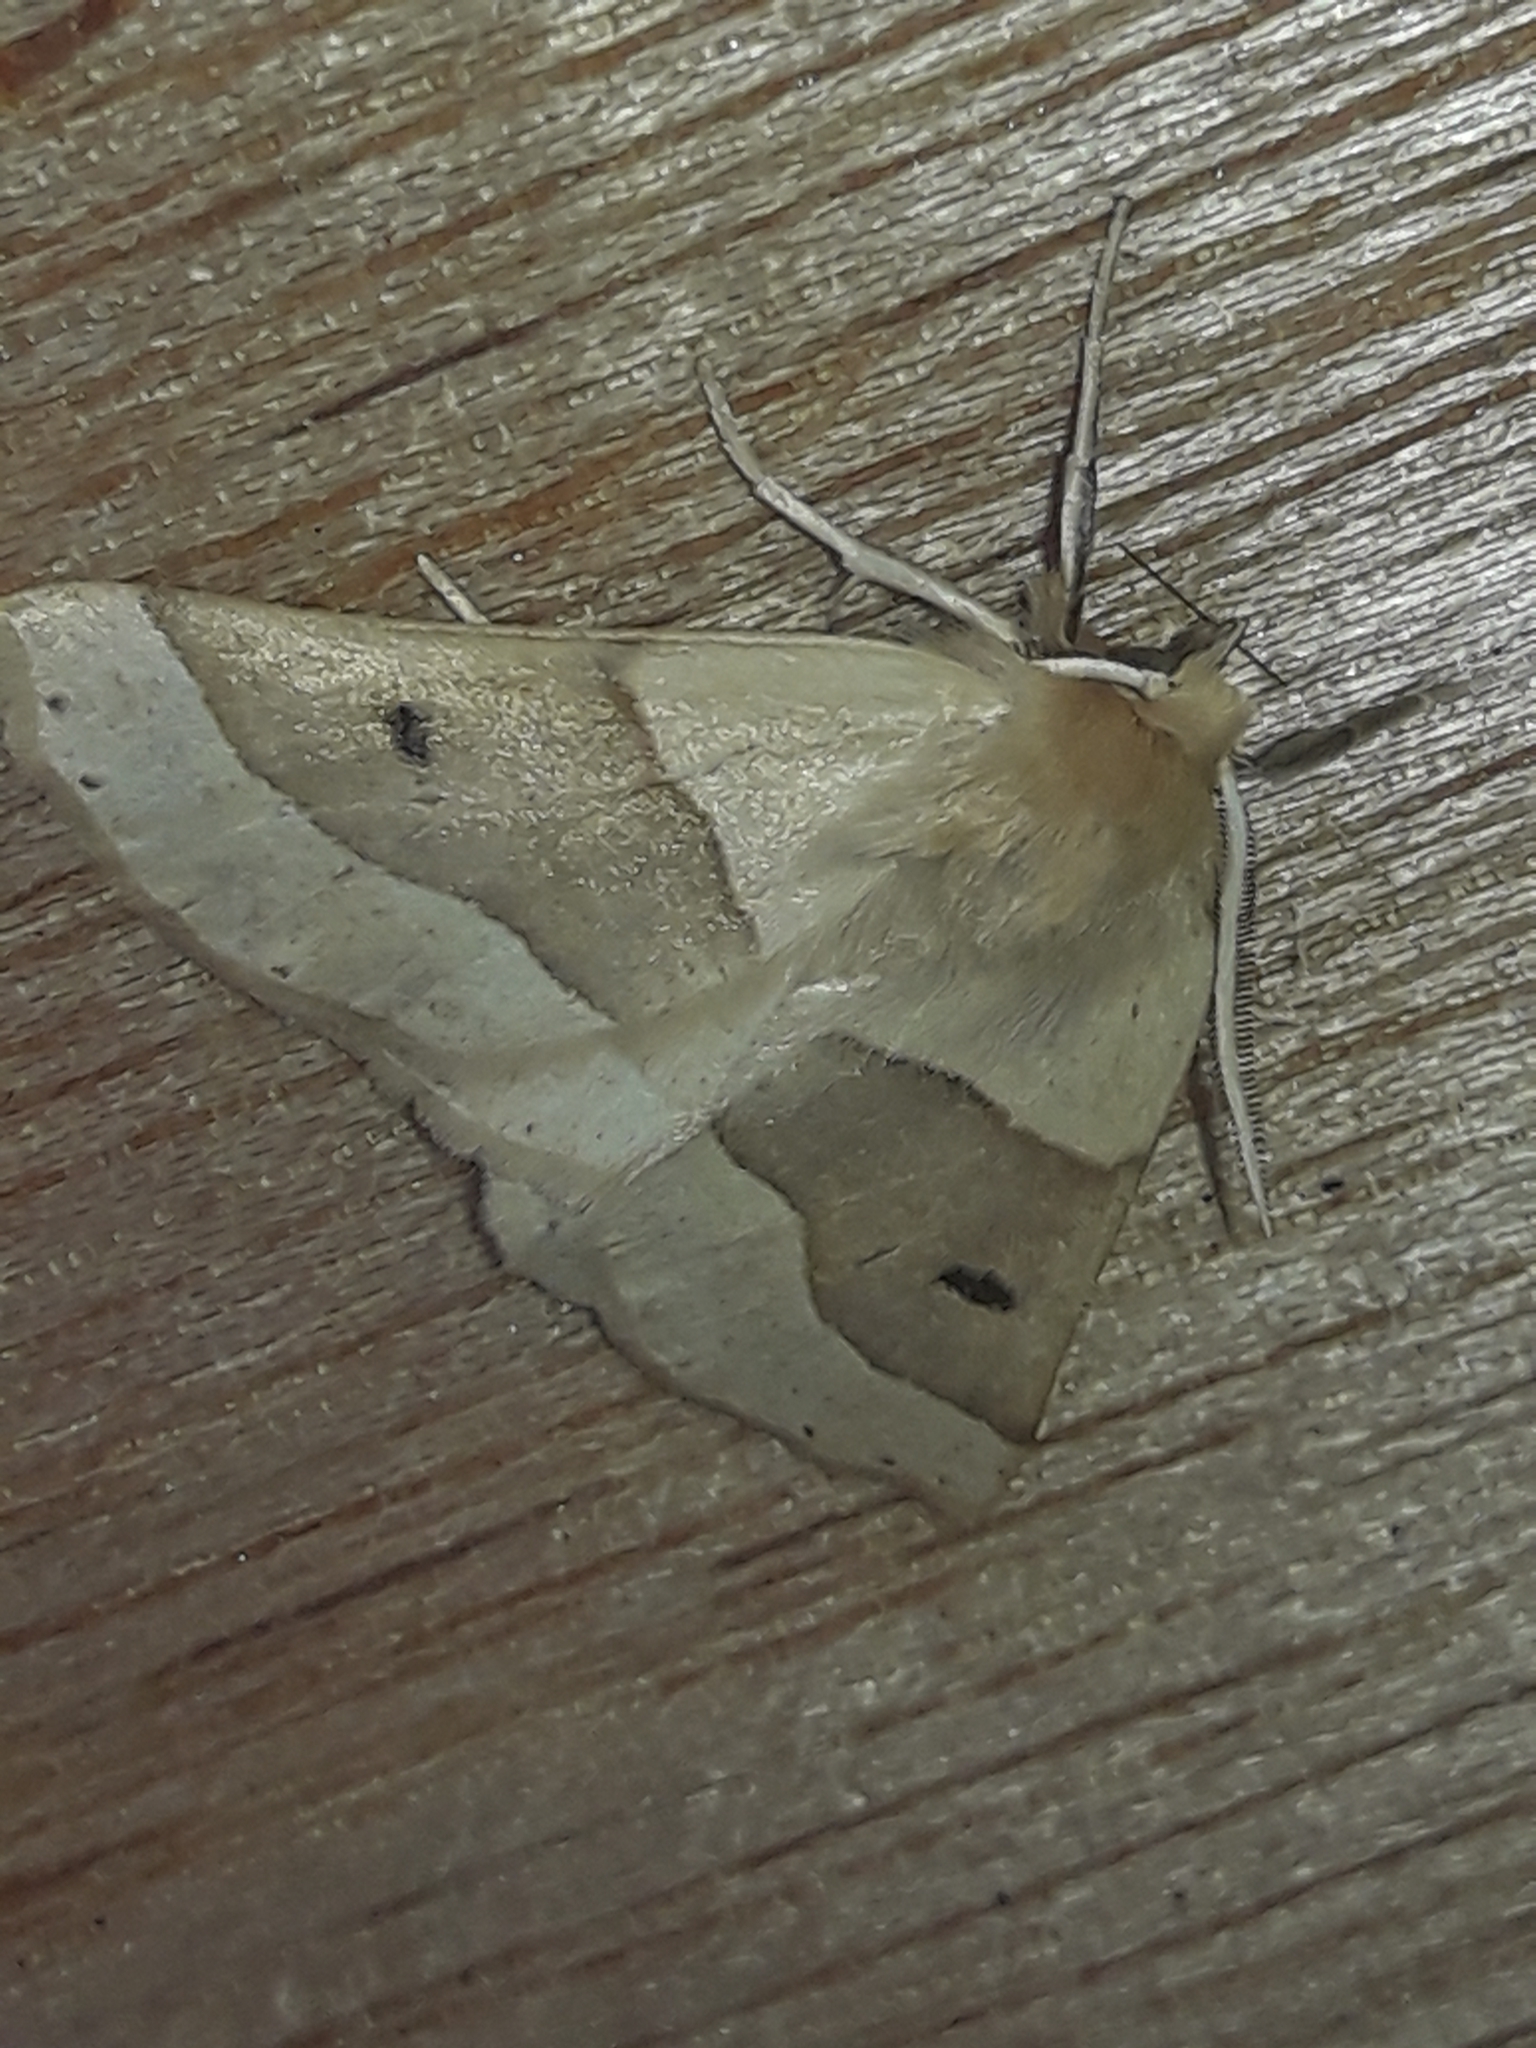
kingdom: Animalia
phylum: Arthropoda
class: Insecta
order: Lepidoptera
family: Geometridae
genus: Crocallis
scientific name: Crocallis elinguaria
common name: Scalloped oak
